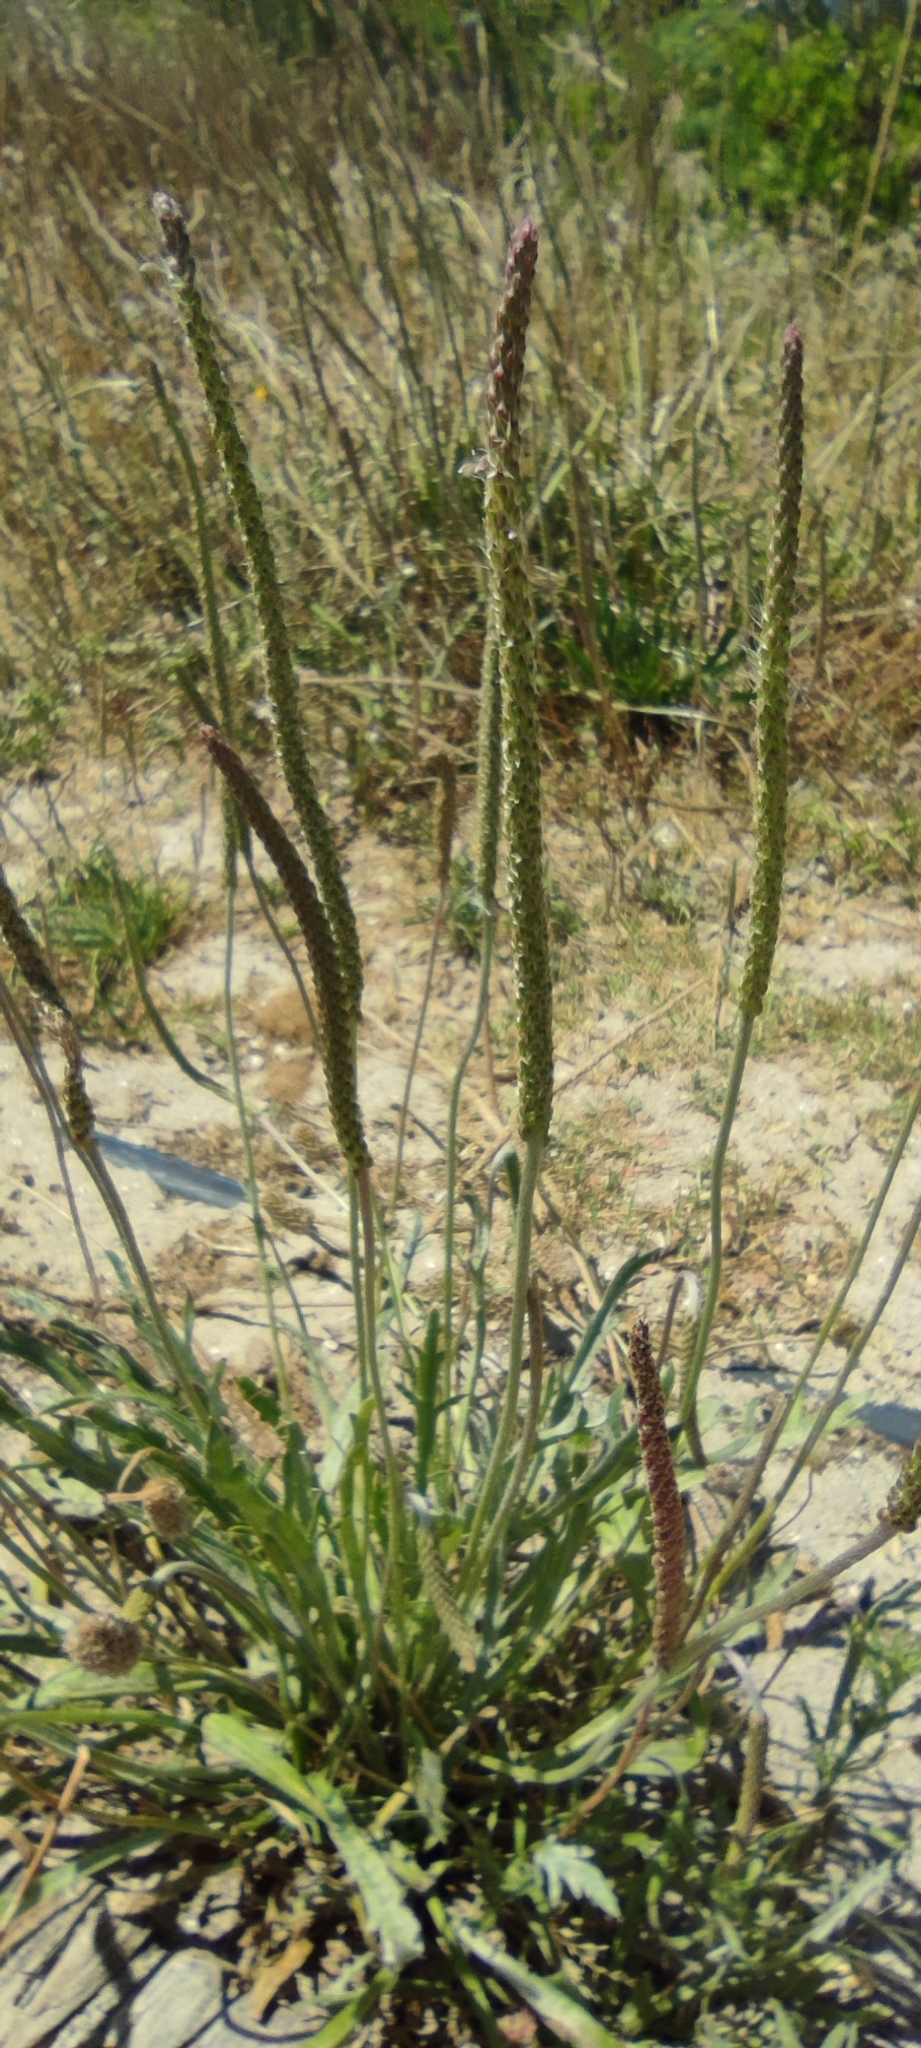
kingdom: Plantae
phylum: Tracheophyta
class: Magnoliopsida
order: Lamiales
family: Plantaginaceae
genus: Plantago
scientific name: Plantago coronopus
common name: Buck's-horn plantain
